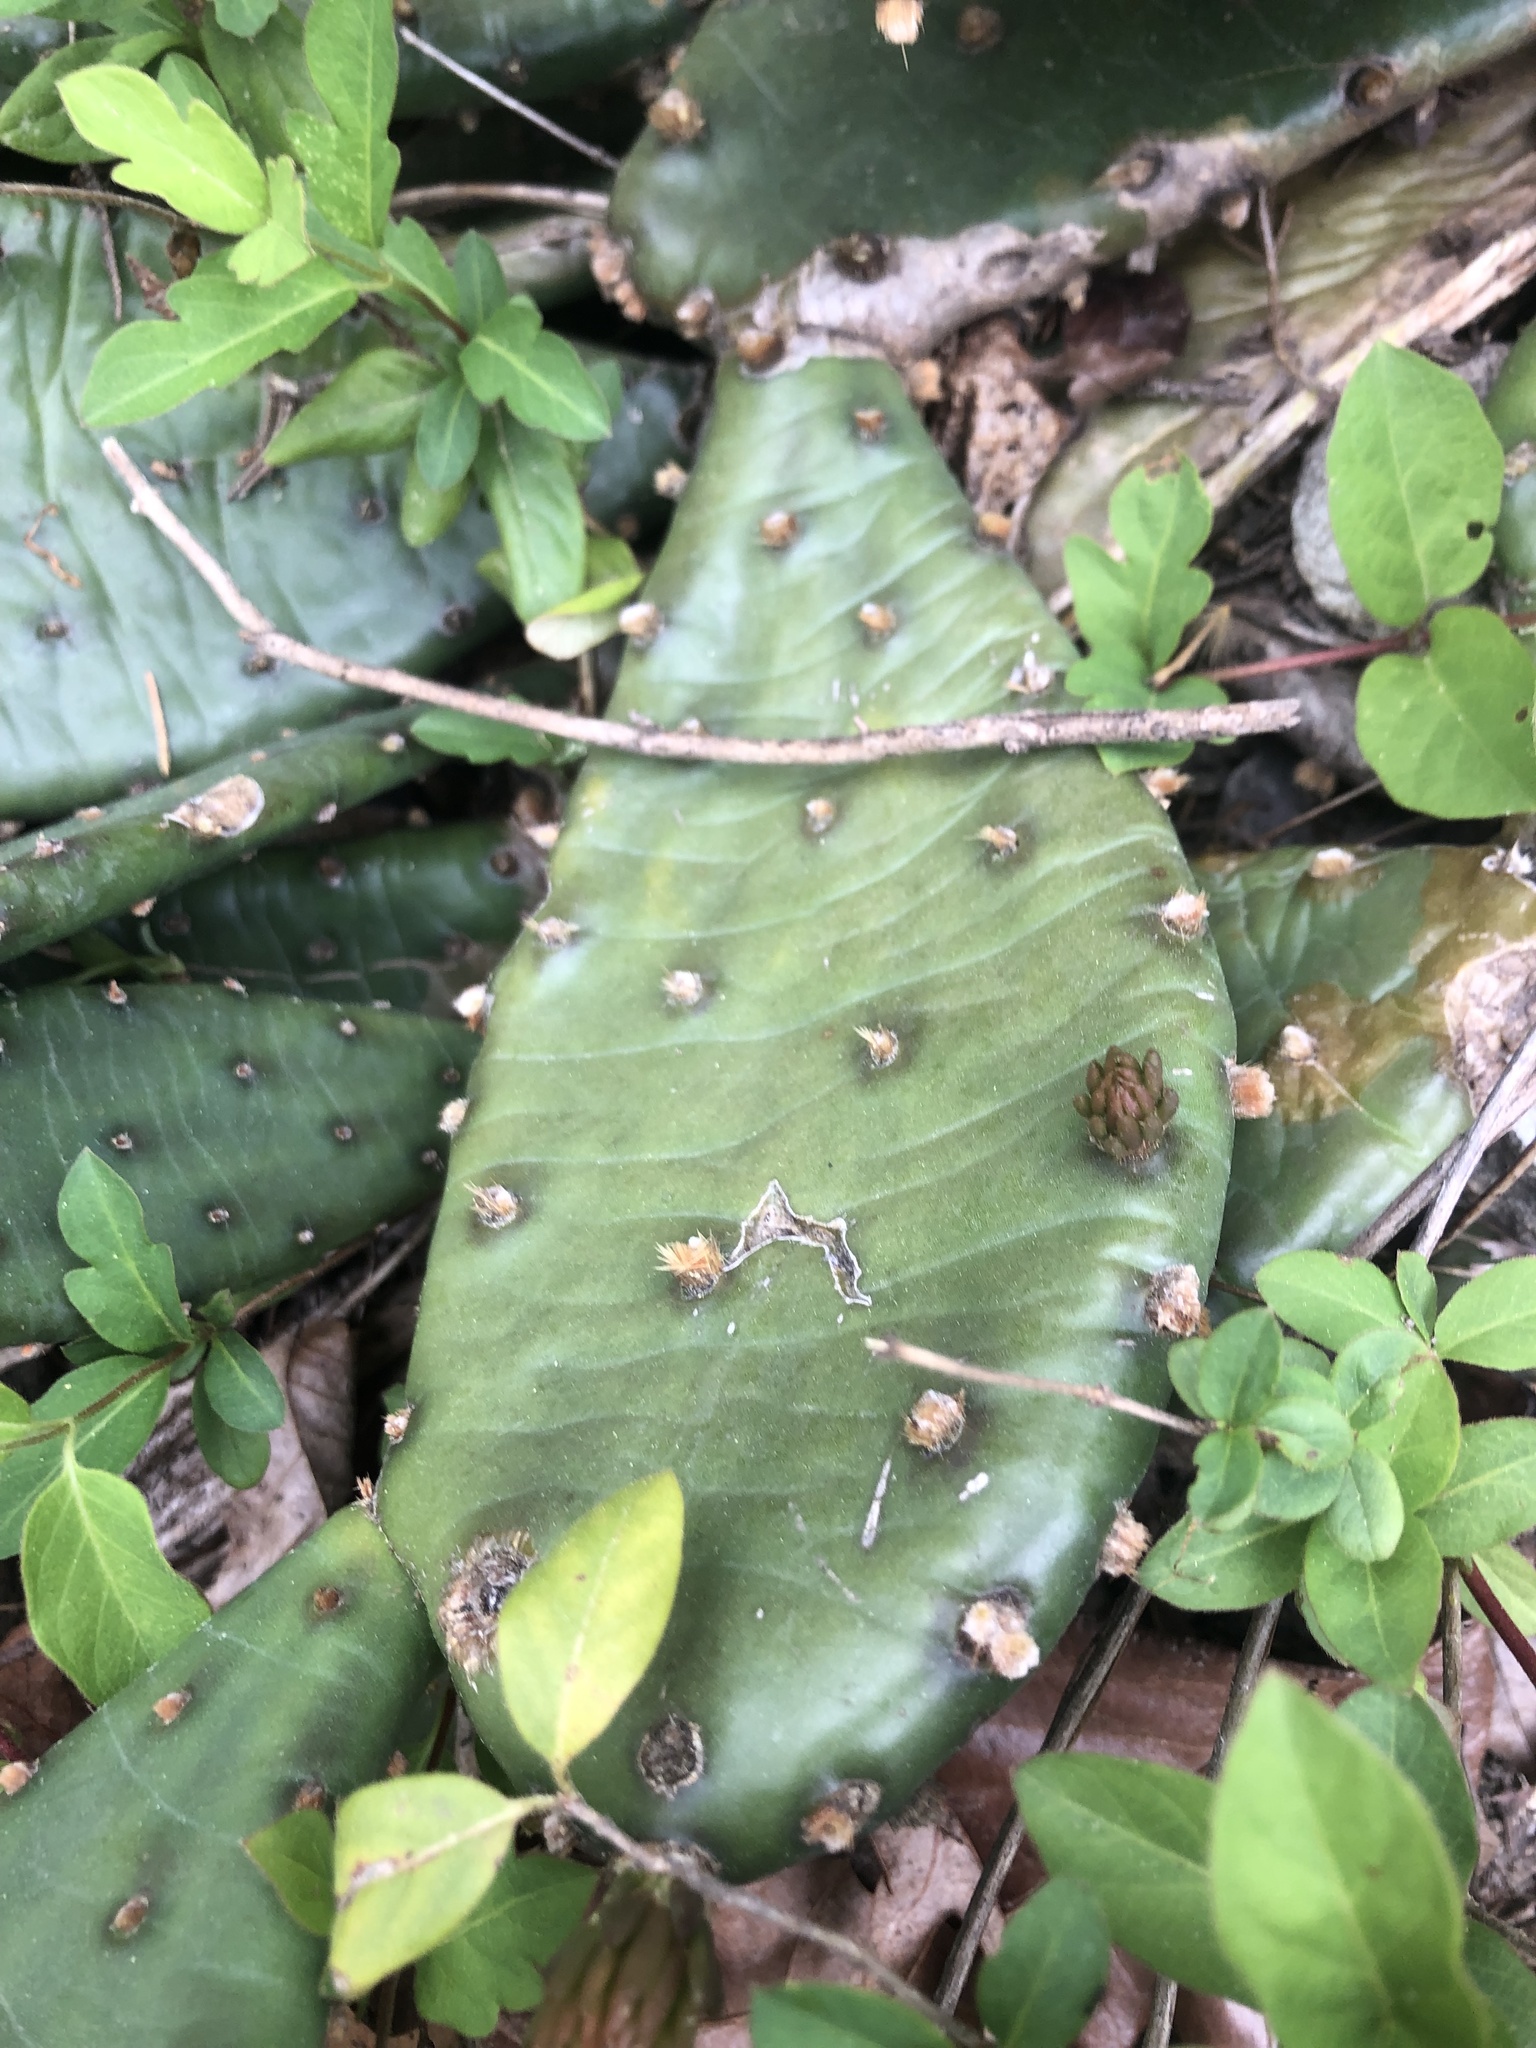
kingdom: Plantae
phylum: Tracheophyta
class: Magnoliopsida
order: Caryophyllales
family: Cactaceae
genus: Opuntia
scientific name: Opuntia mesacantha
